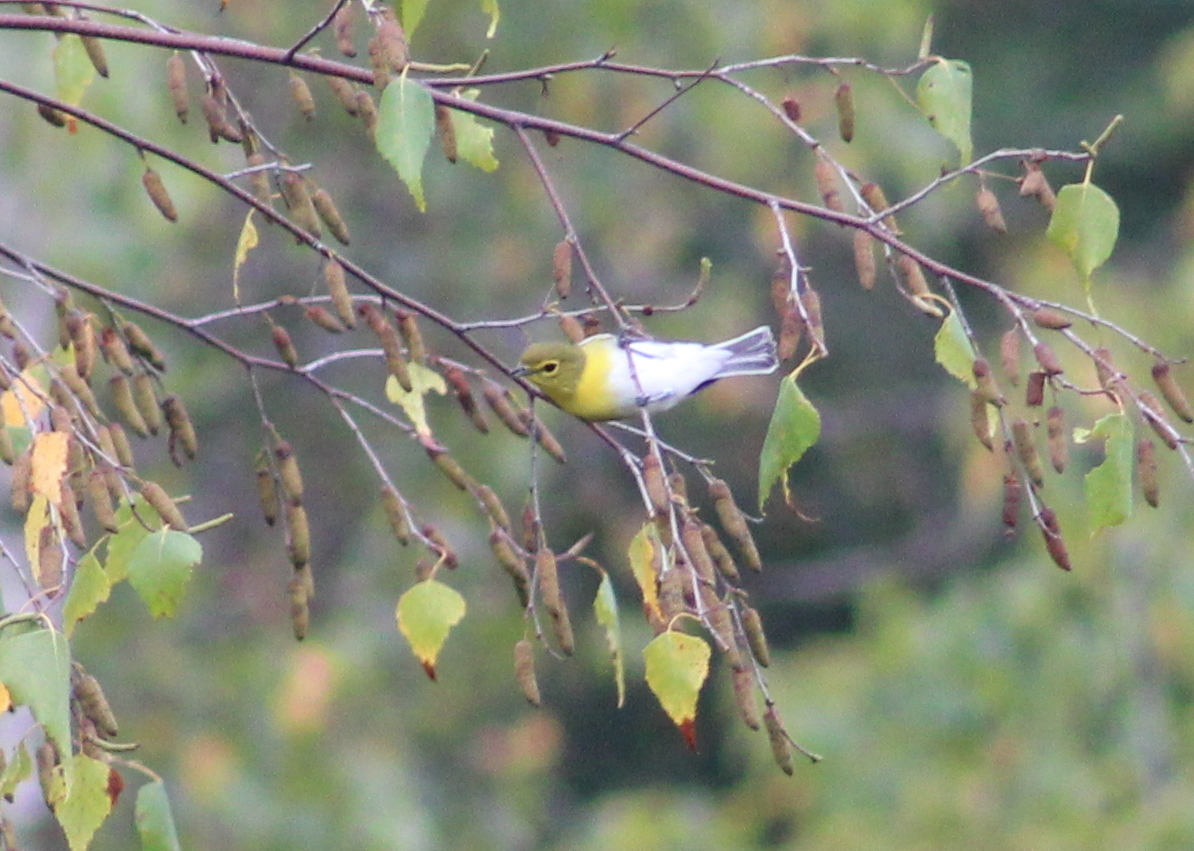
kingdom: Animalia
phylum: Chordata
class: Aves
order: Passeriformes
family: Vireonidae
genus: Vireo
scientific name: Vireo flavifrons
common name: Yellow-throated vireo
